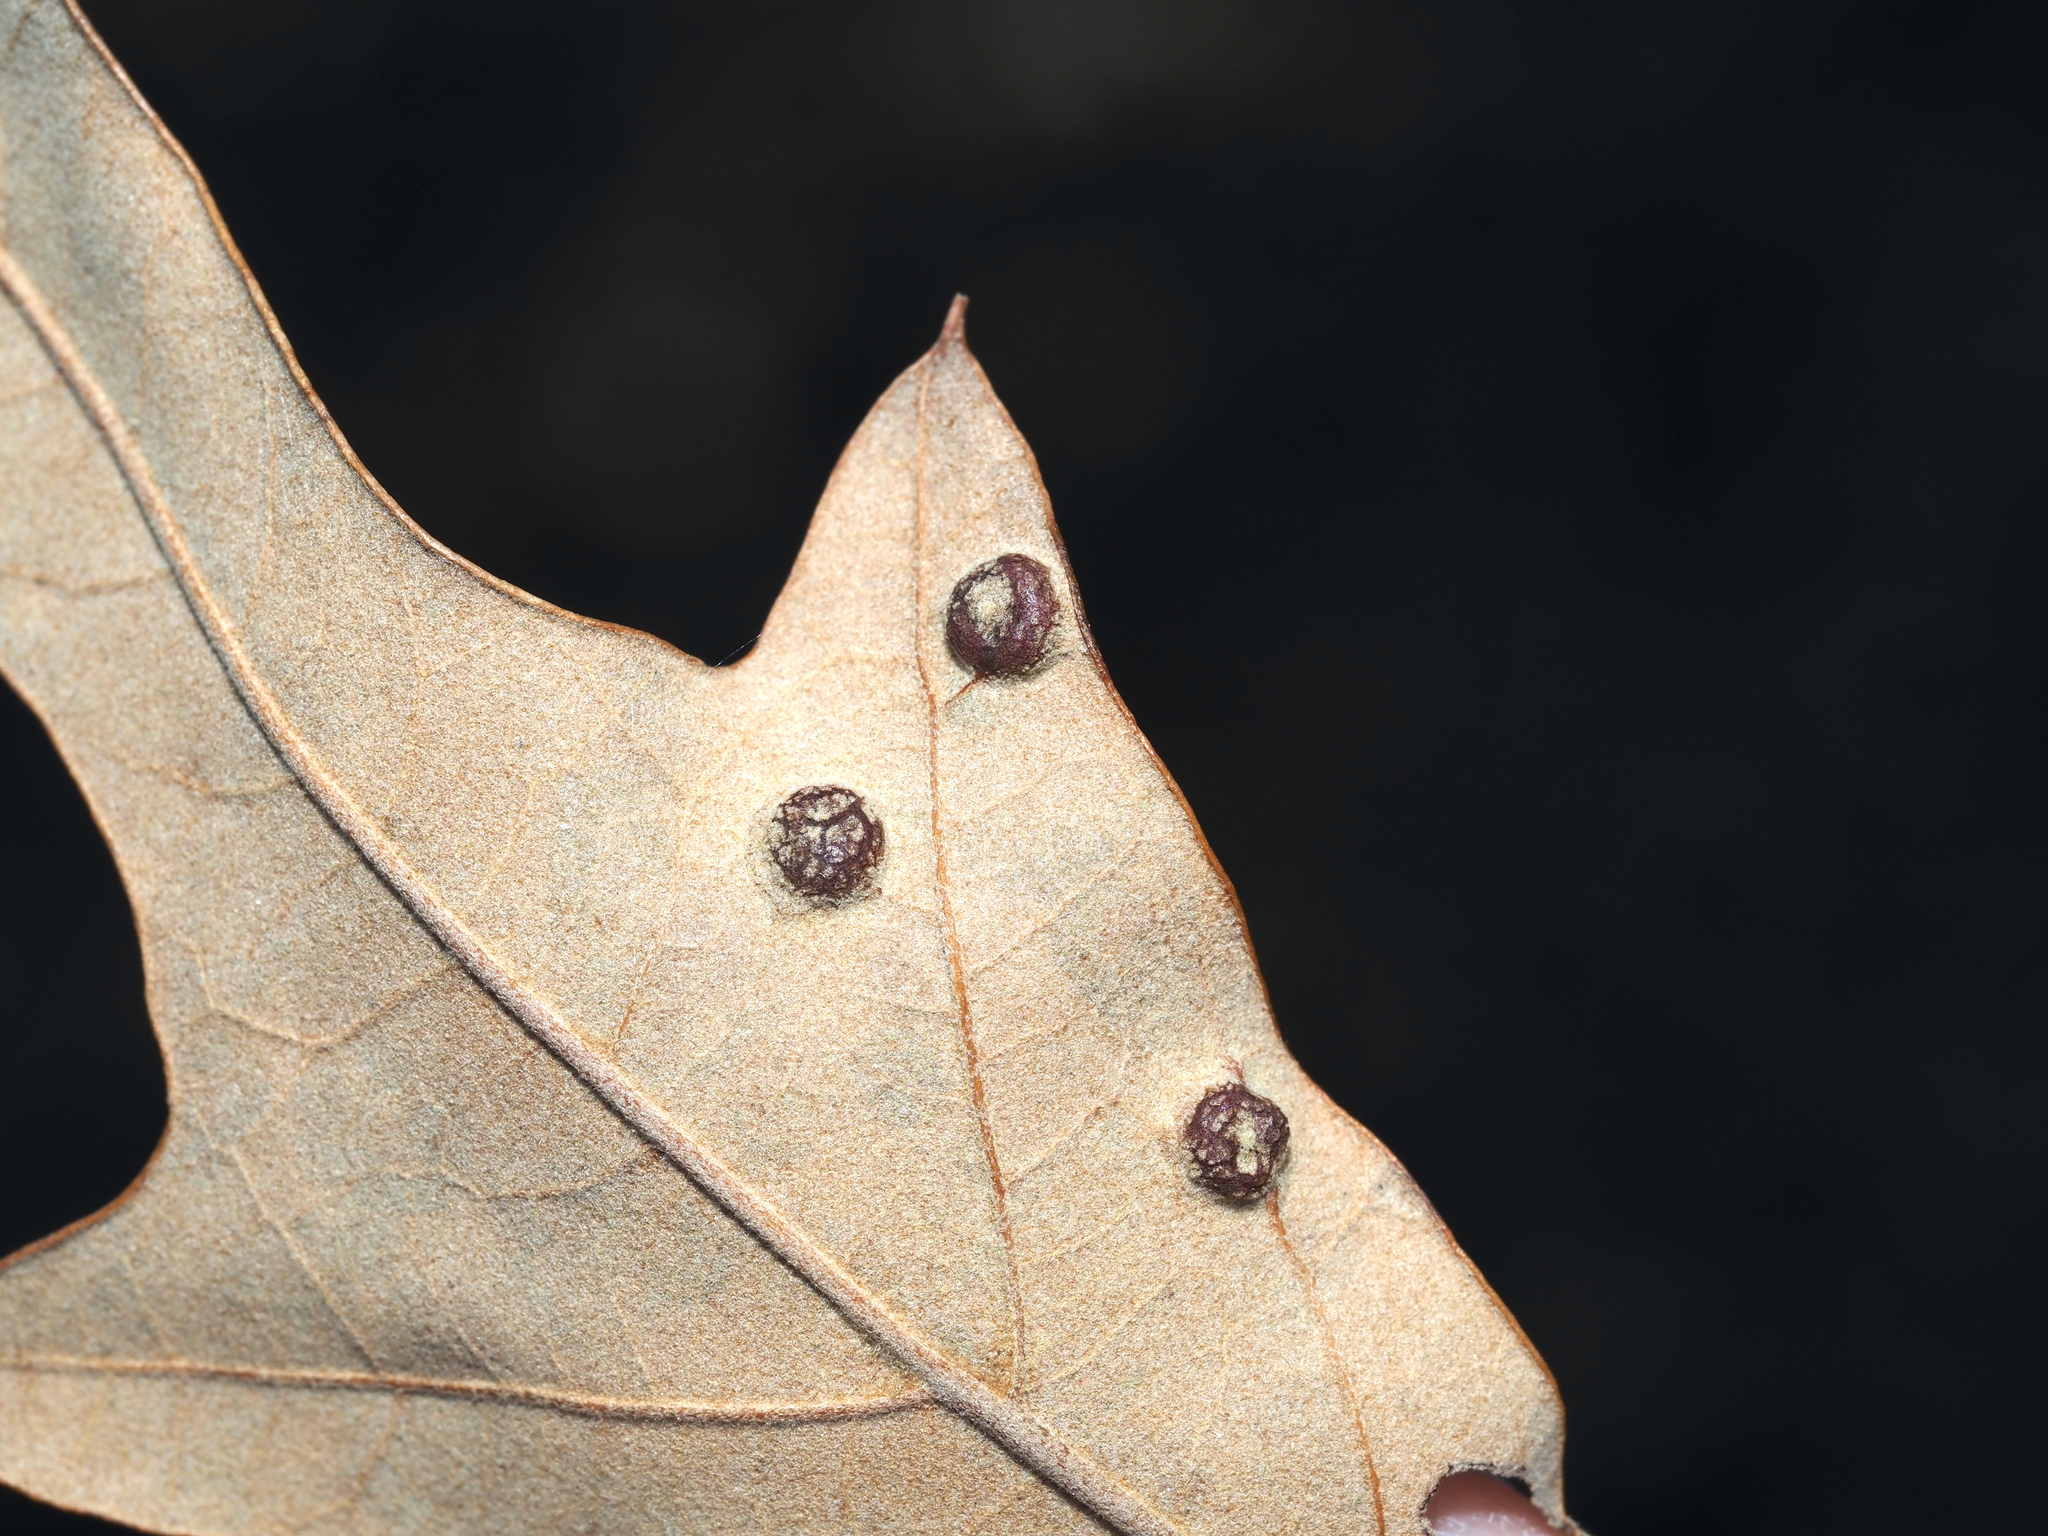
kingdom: Animalia
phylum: Arthropoda
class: Insecta
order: Diptera
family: Cecidomyiidae
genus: Polystepha
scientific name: Polystepha symmetrica
